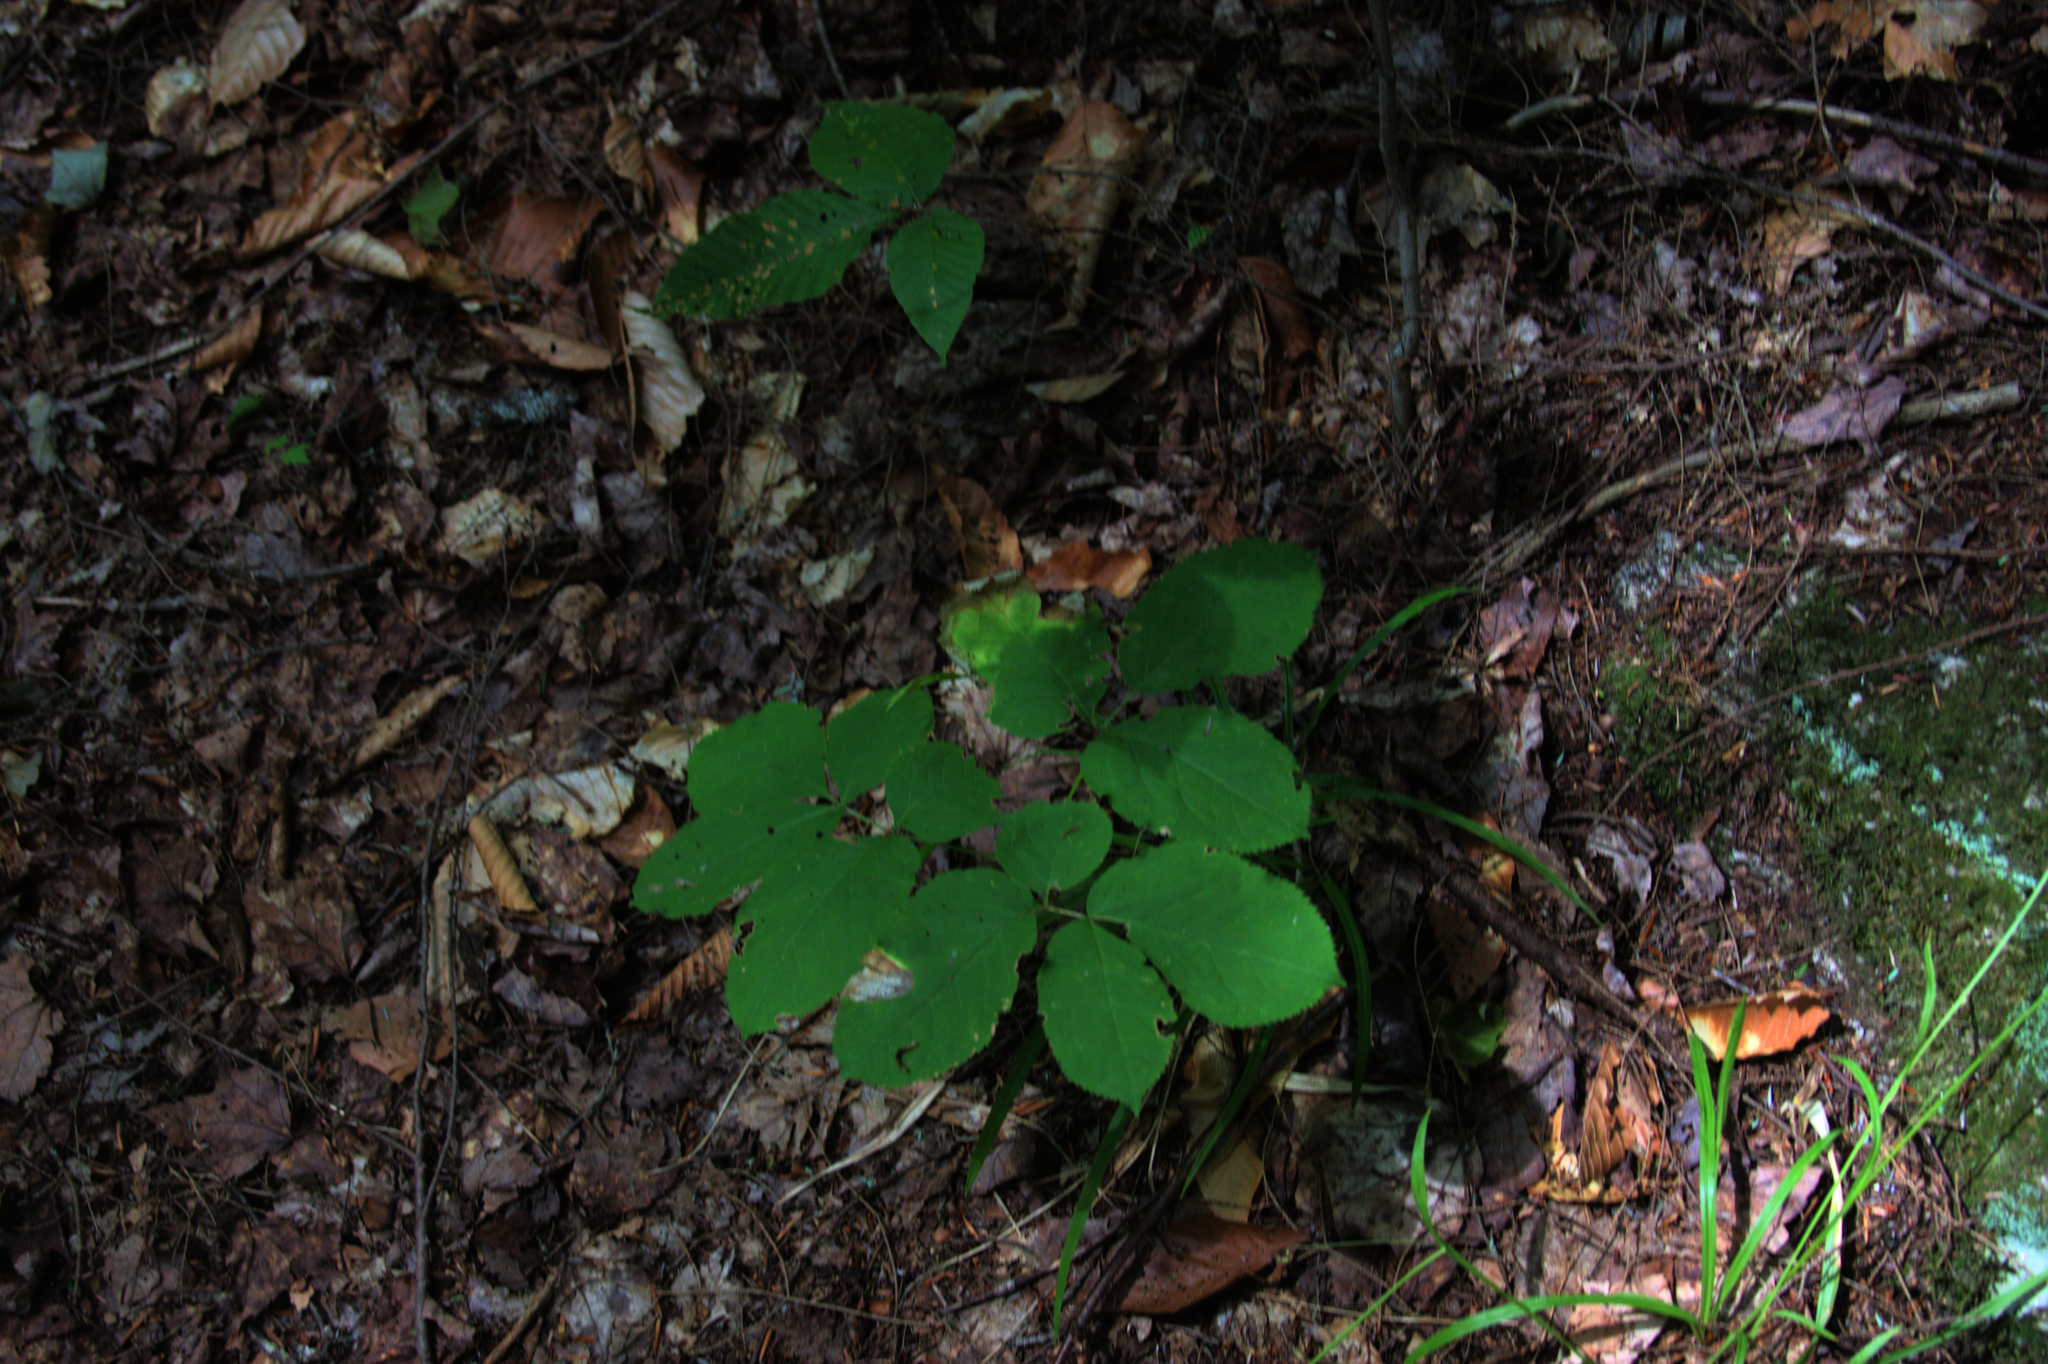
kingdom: Plantae
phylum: Tracheophyta
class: Magnoliopsida
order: Apiales
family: Araliaceae
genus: Aralia
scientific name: Aralia nudicaulis
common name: Wild sarsaparilla
